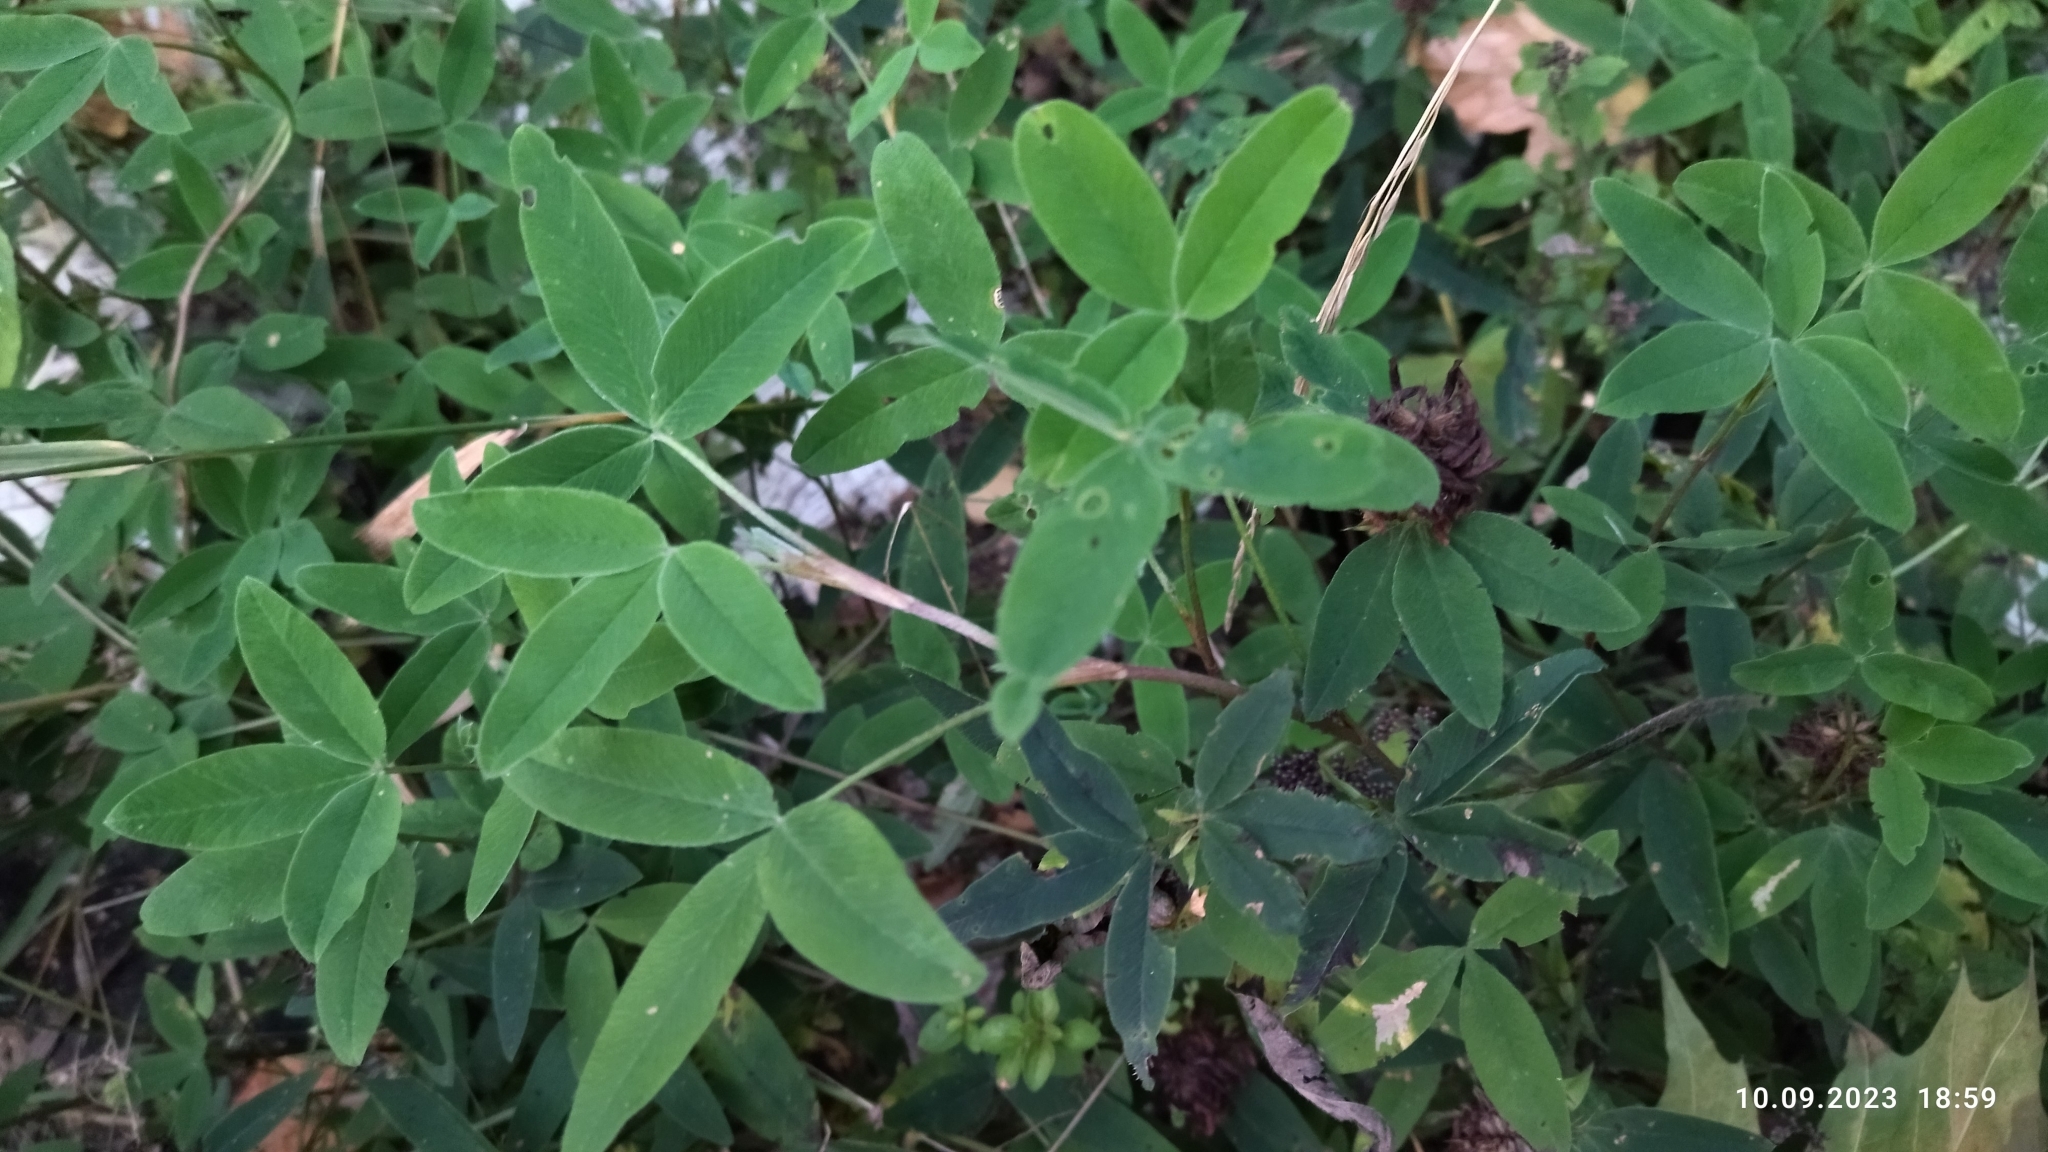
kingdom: Plantae
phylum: Tracheophyta
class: Magnoliopsida
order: Fabales
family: Fabaceae
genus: Trifolium
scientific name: Trifolium medium
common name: Zigzag clover
